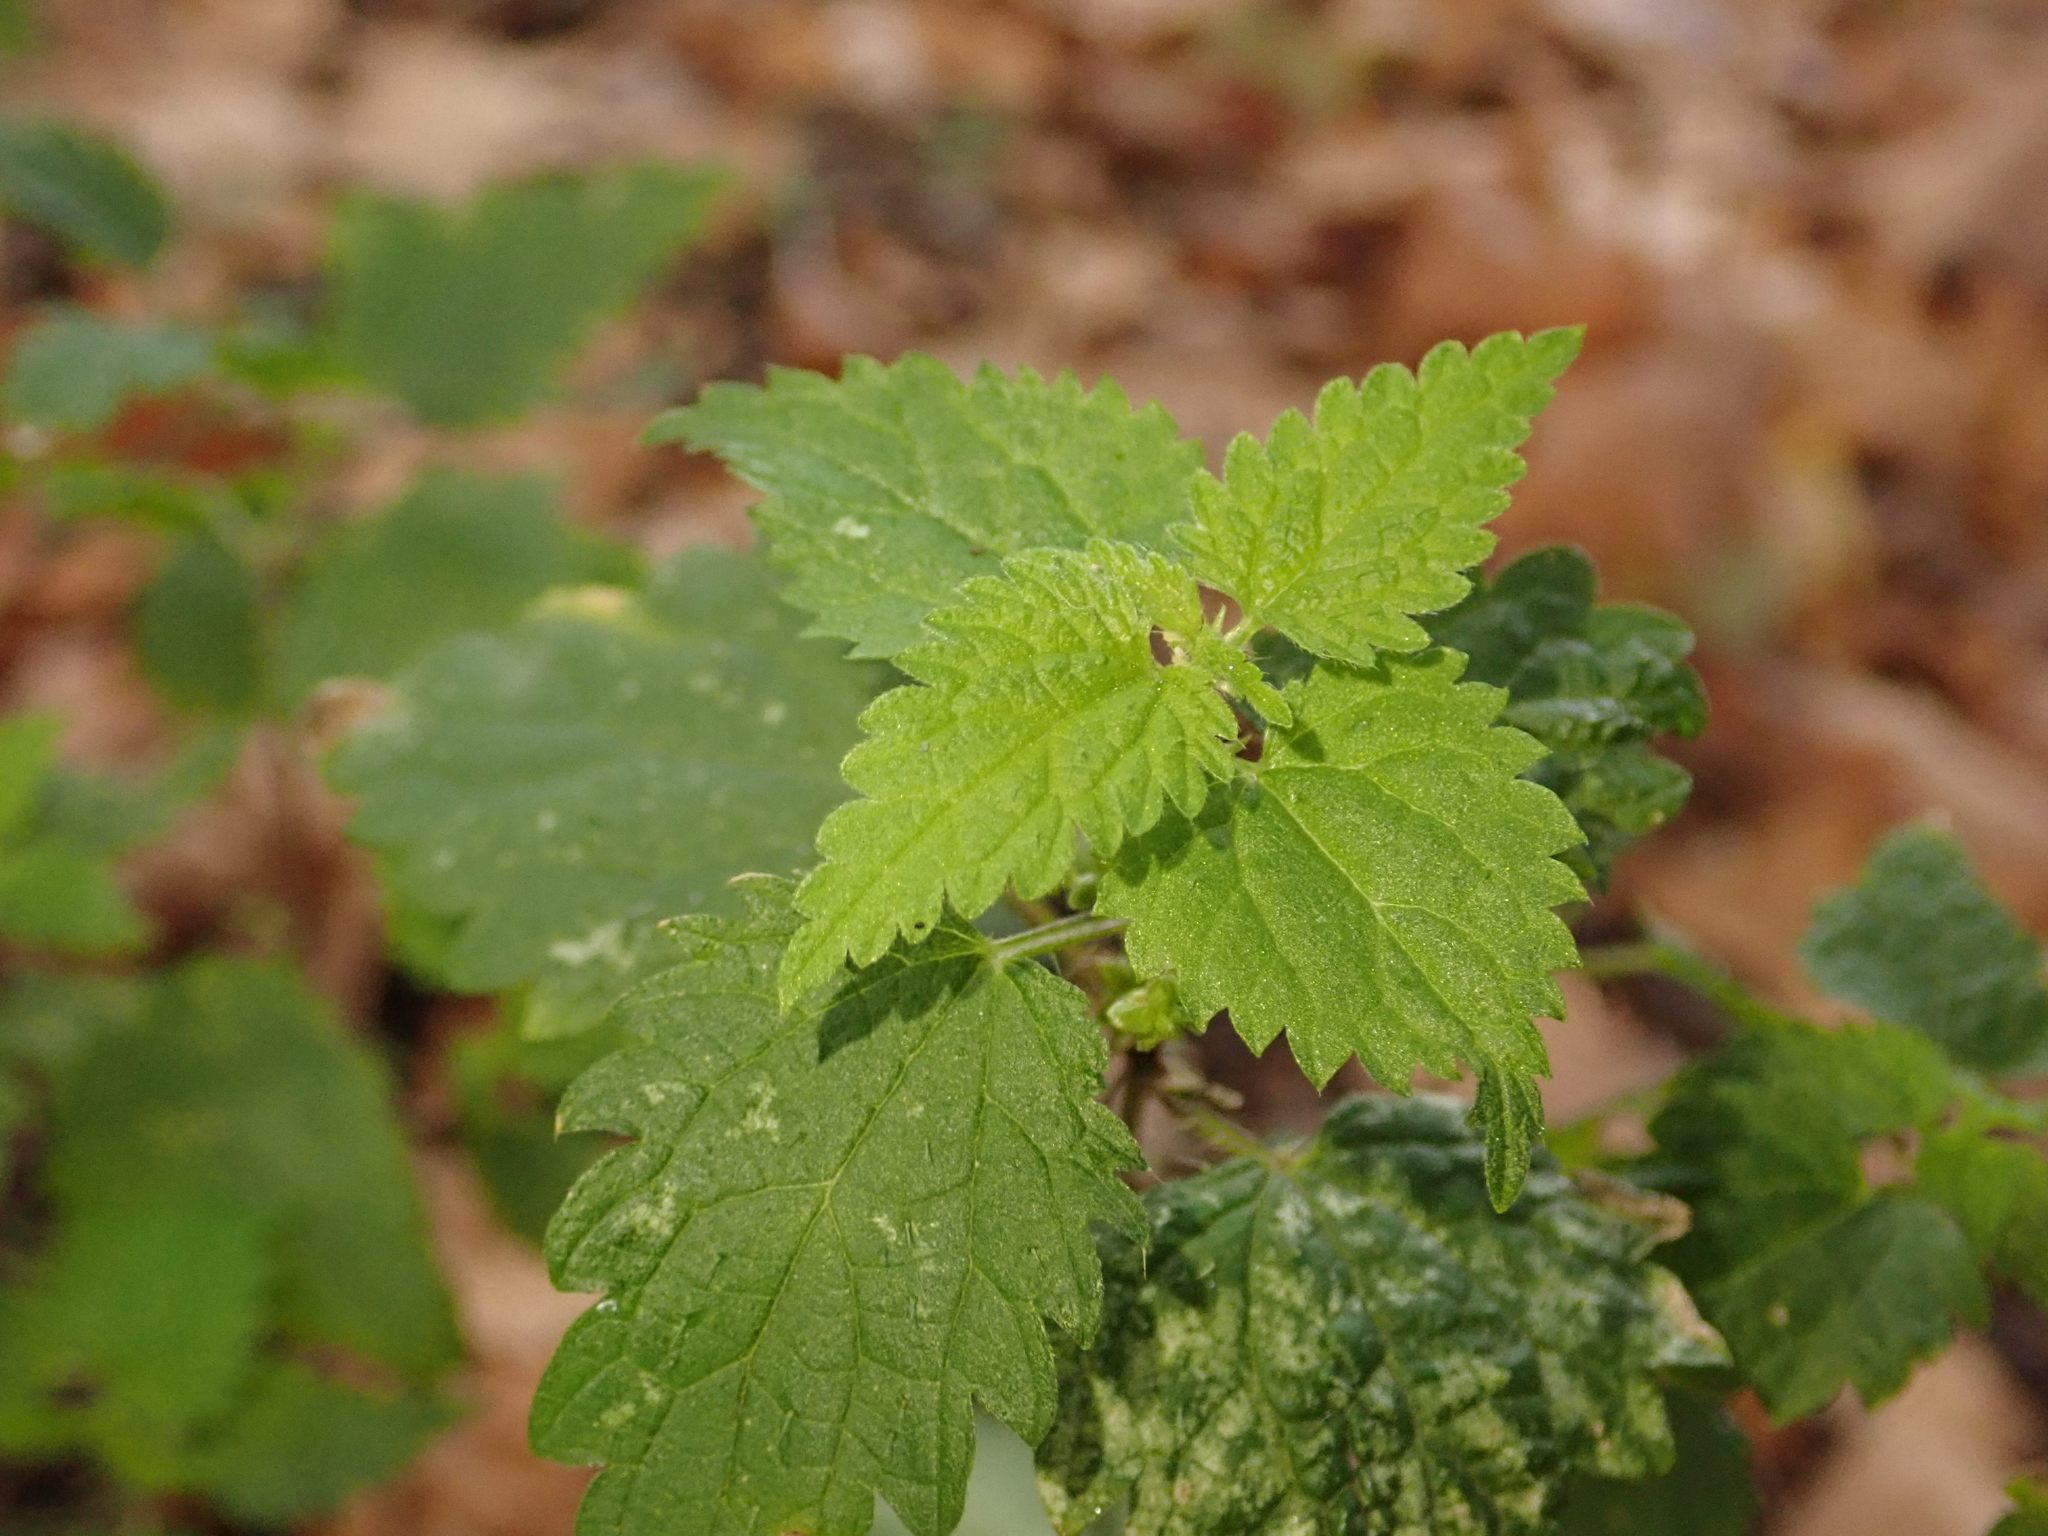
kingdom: Plantae
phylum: Tracheophyta
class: Magnoliopsida
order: Rosales
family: Urticaceae
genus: Urtica
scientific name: Urtica dioica
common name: Common nettle
